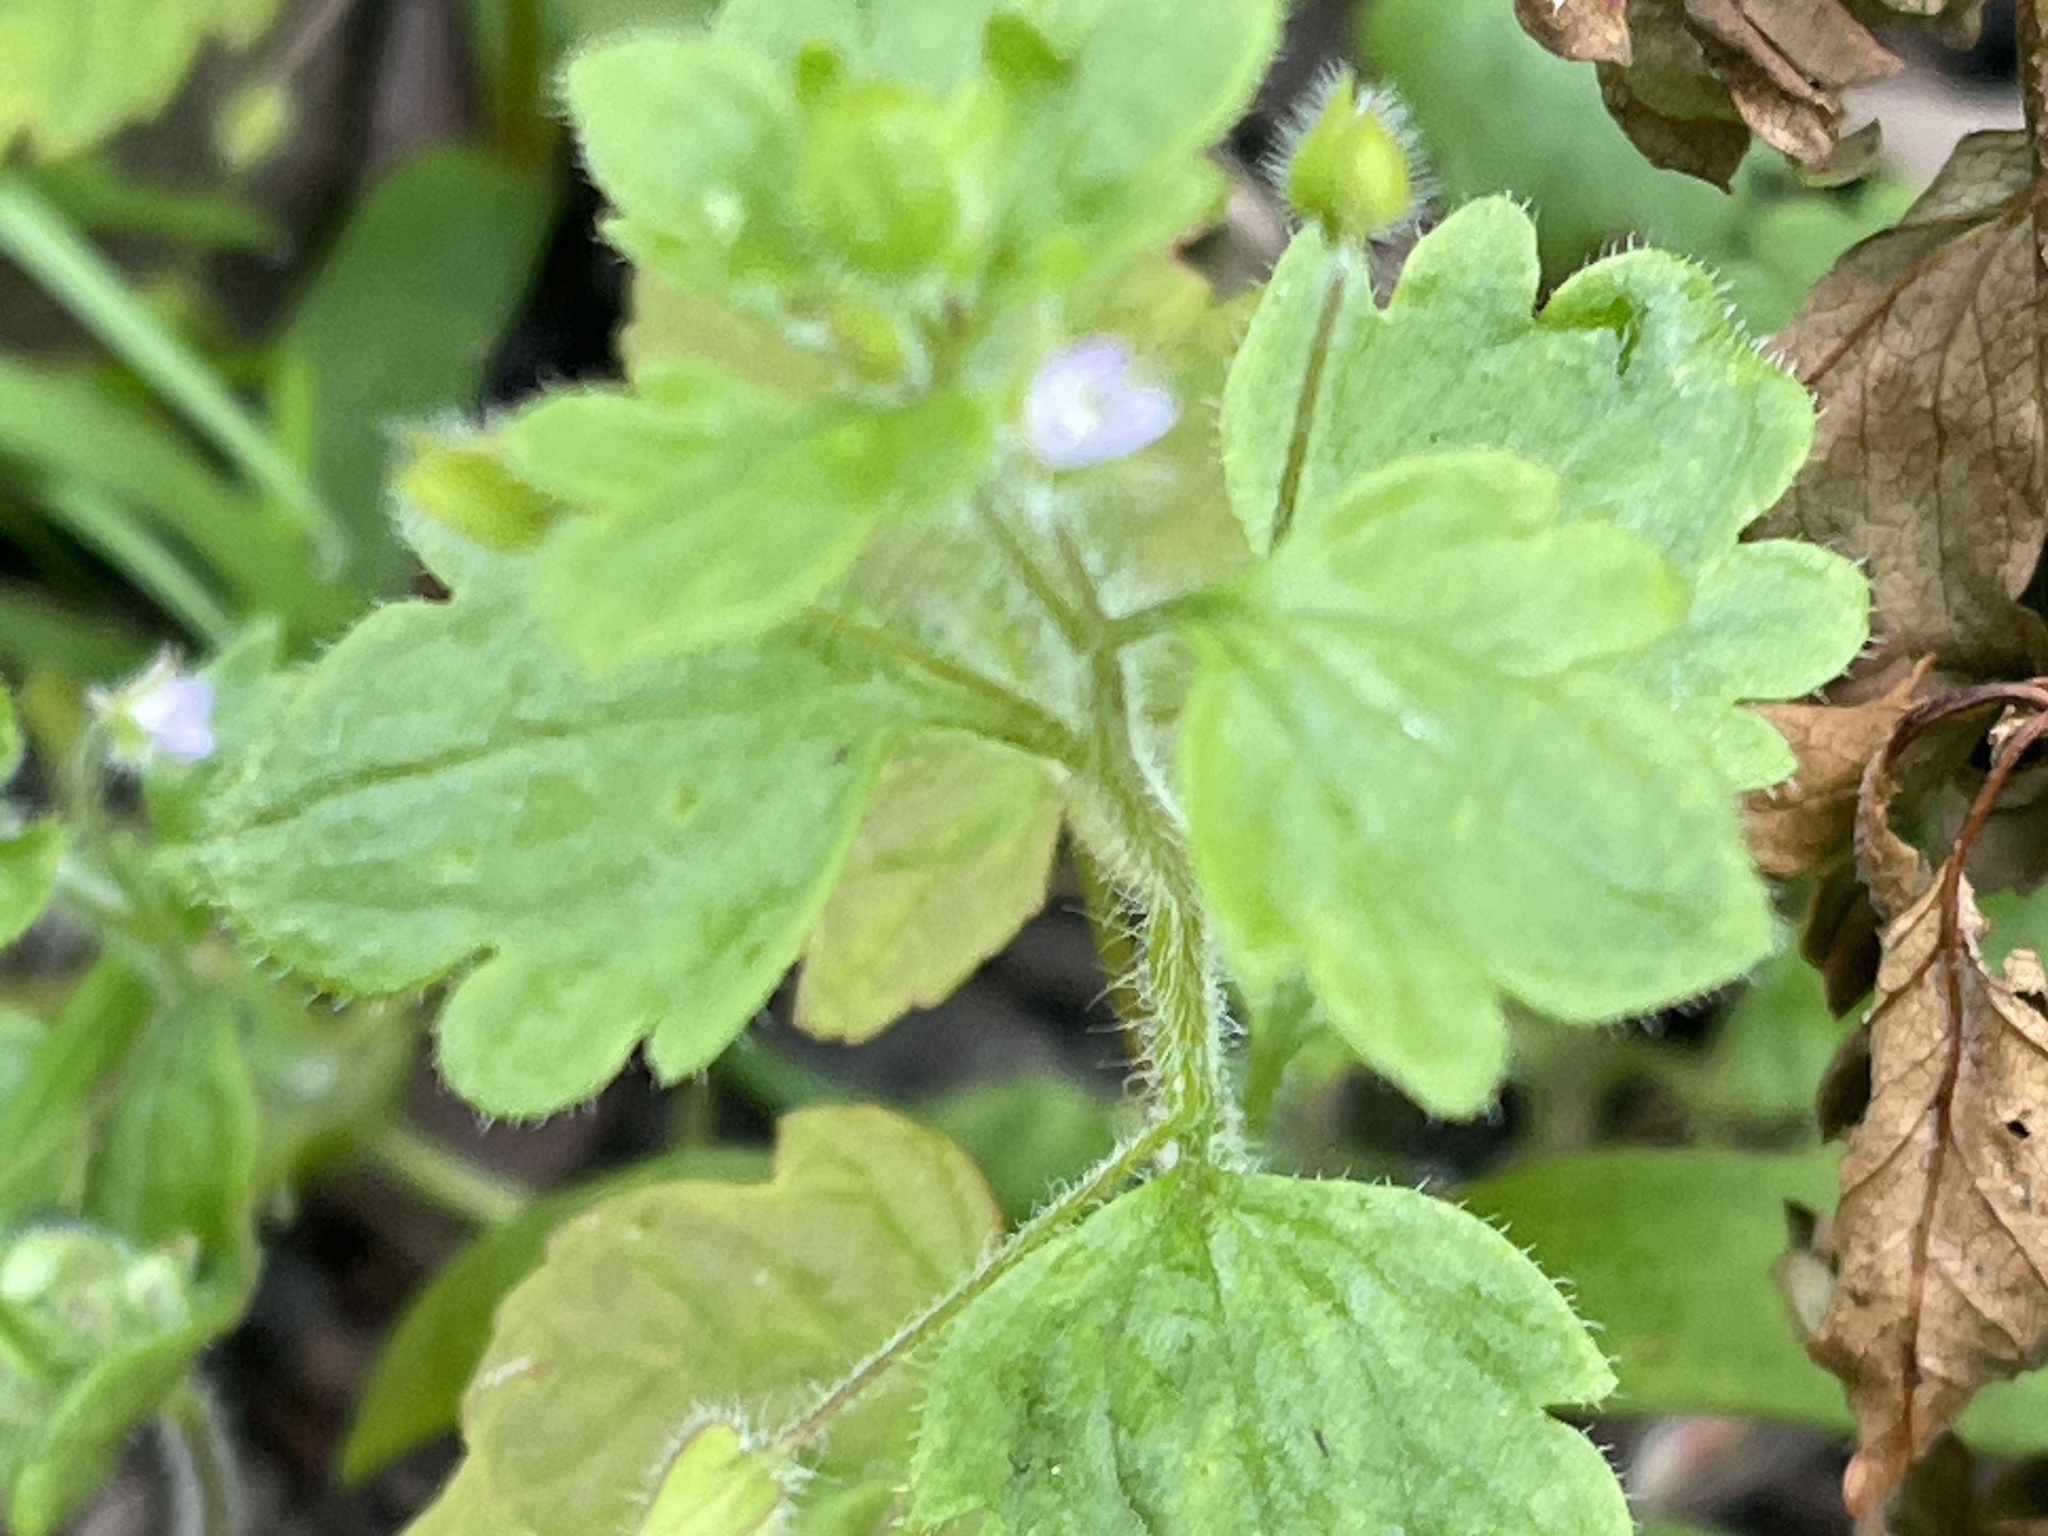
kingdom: Plantae
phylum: Tracheophyta
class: Magnoliopsida
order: Lamiales
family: Plantaginaceae
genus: Veronica
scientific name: Veronica sublobata
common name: False ivy-leaved speedwell
